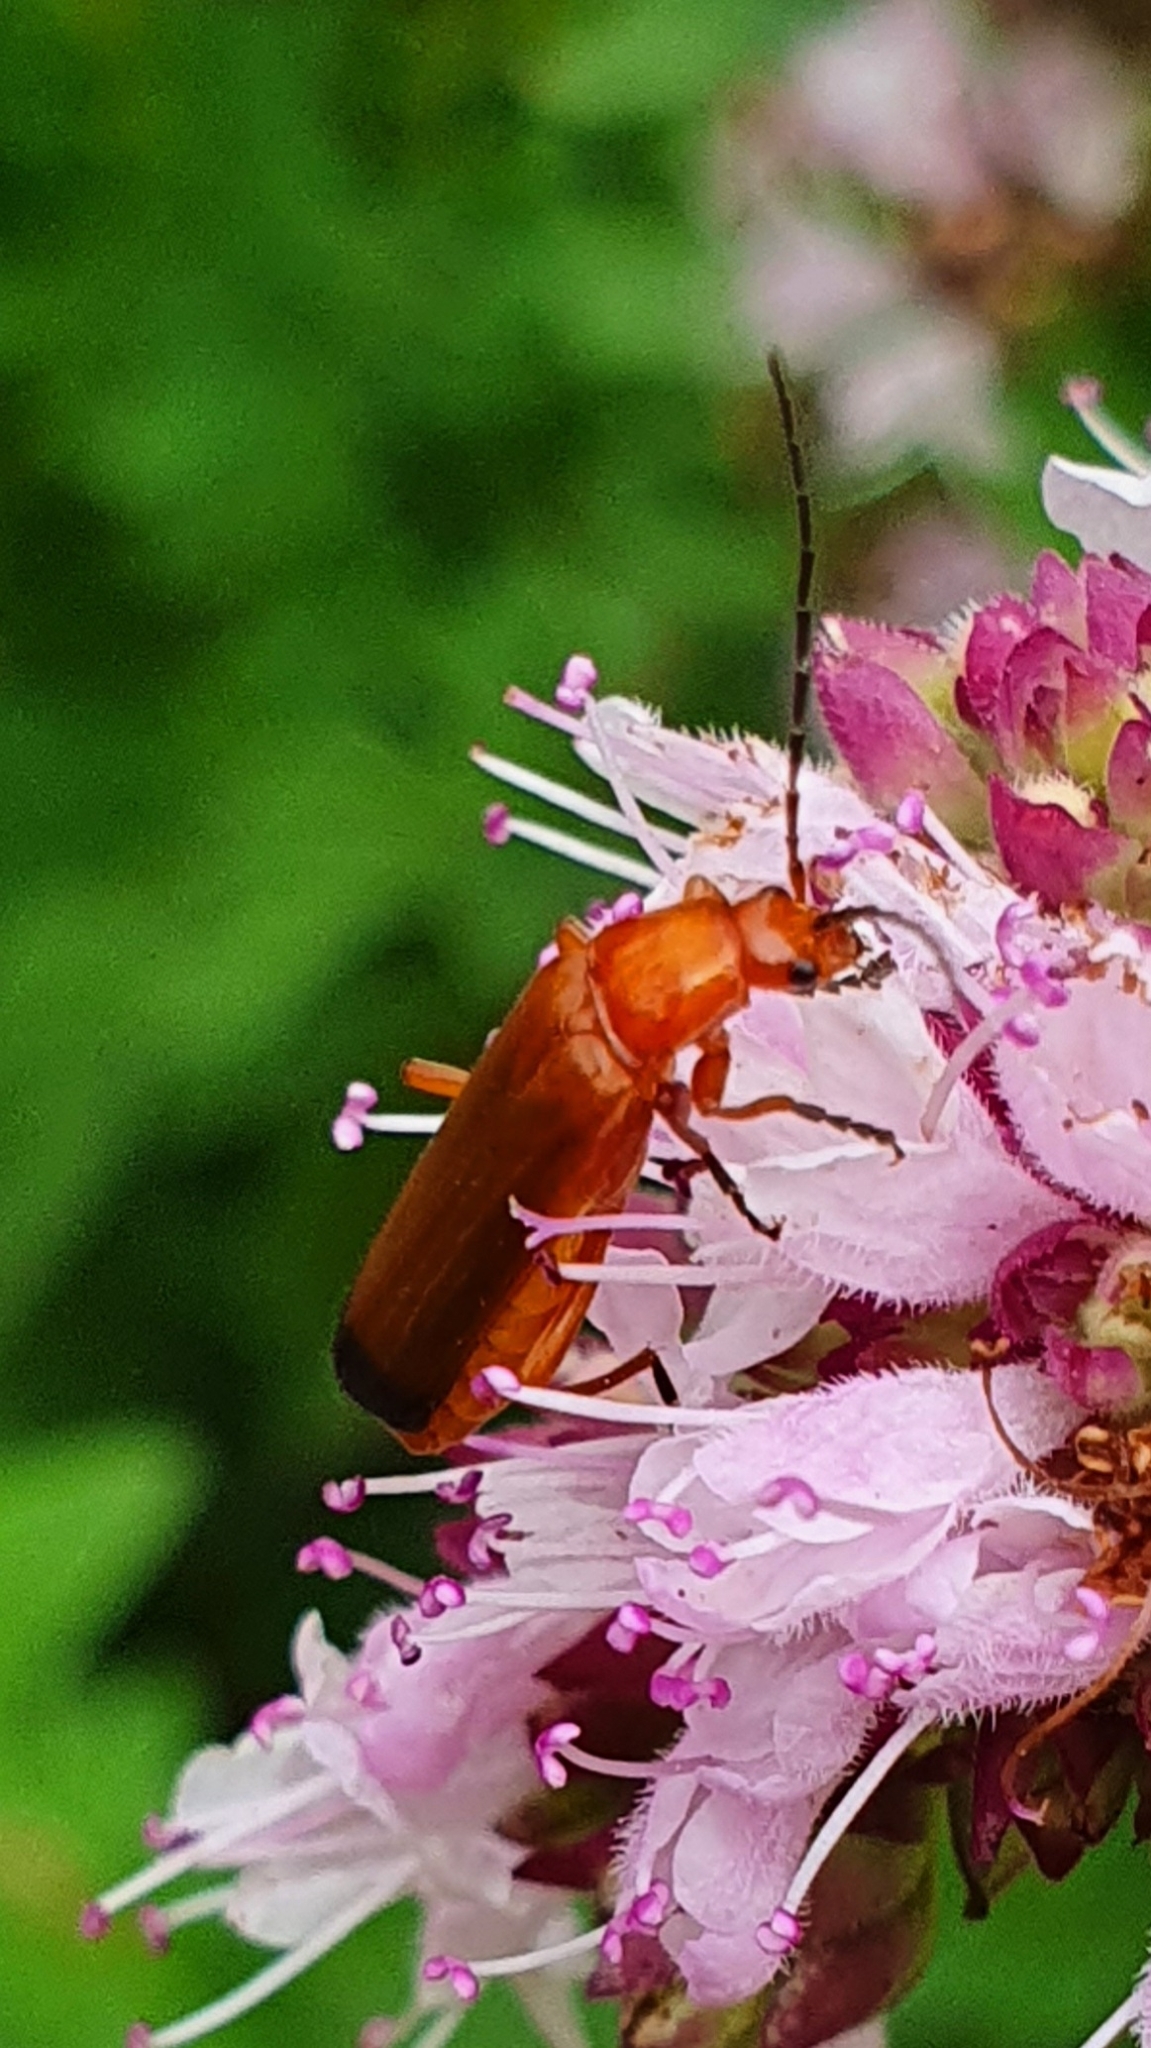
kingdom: Animalia
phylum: Arthropoda
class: Insecta
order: Coleoptera
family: Cantharidae
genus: Rhagonycha
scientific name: Rhagonycha fulva
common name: Common red soldier beetle
